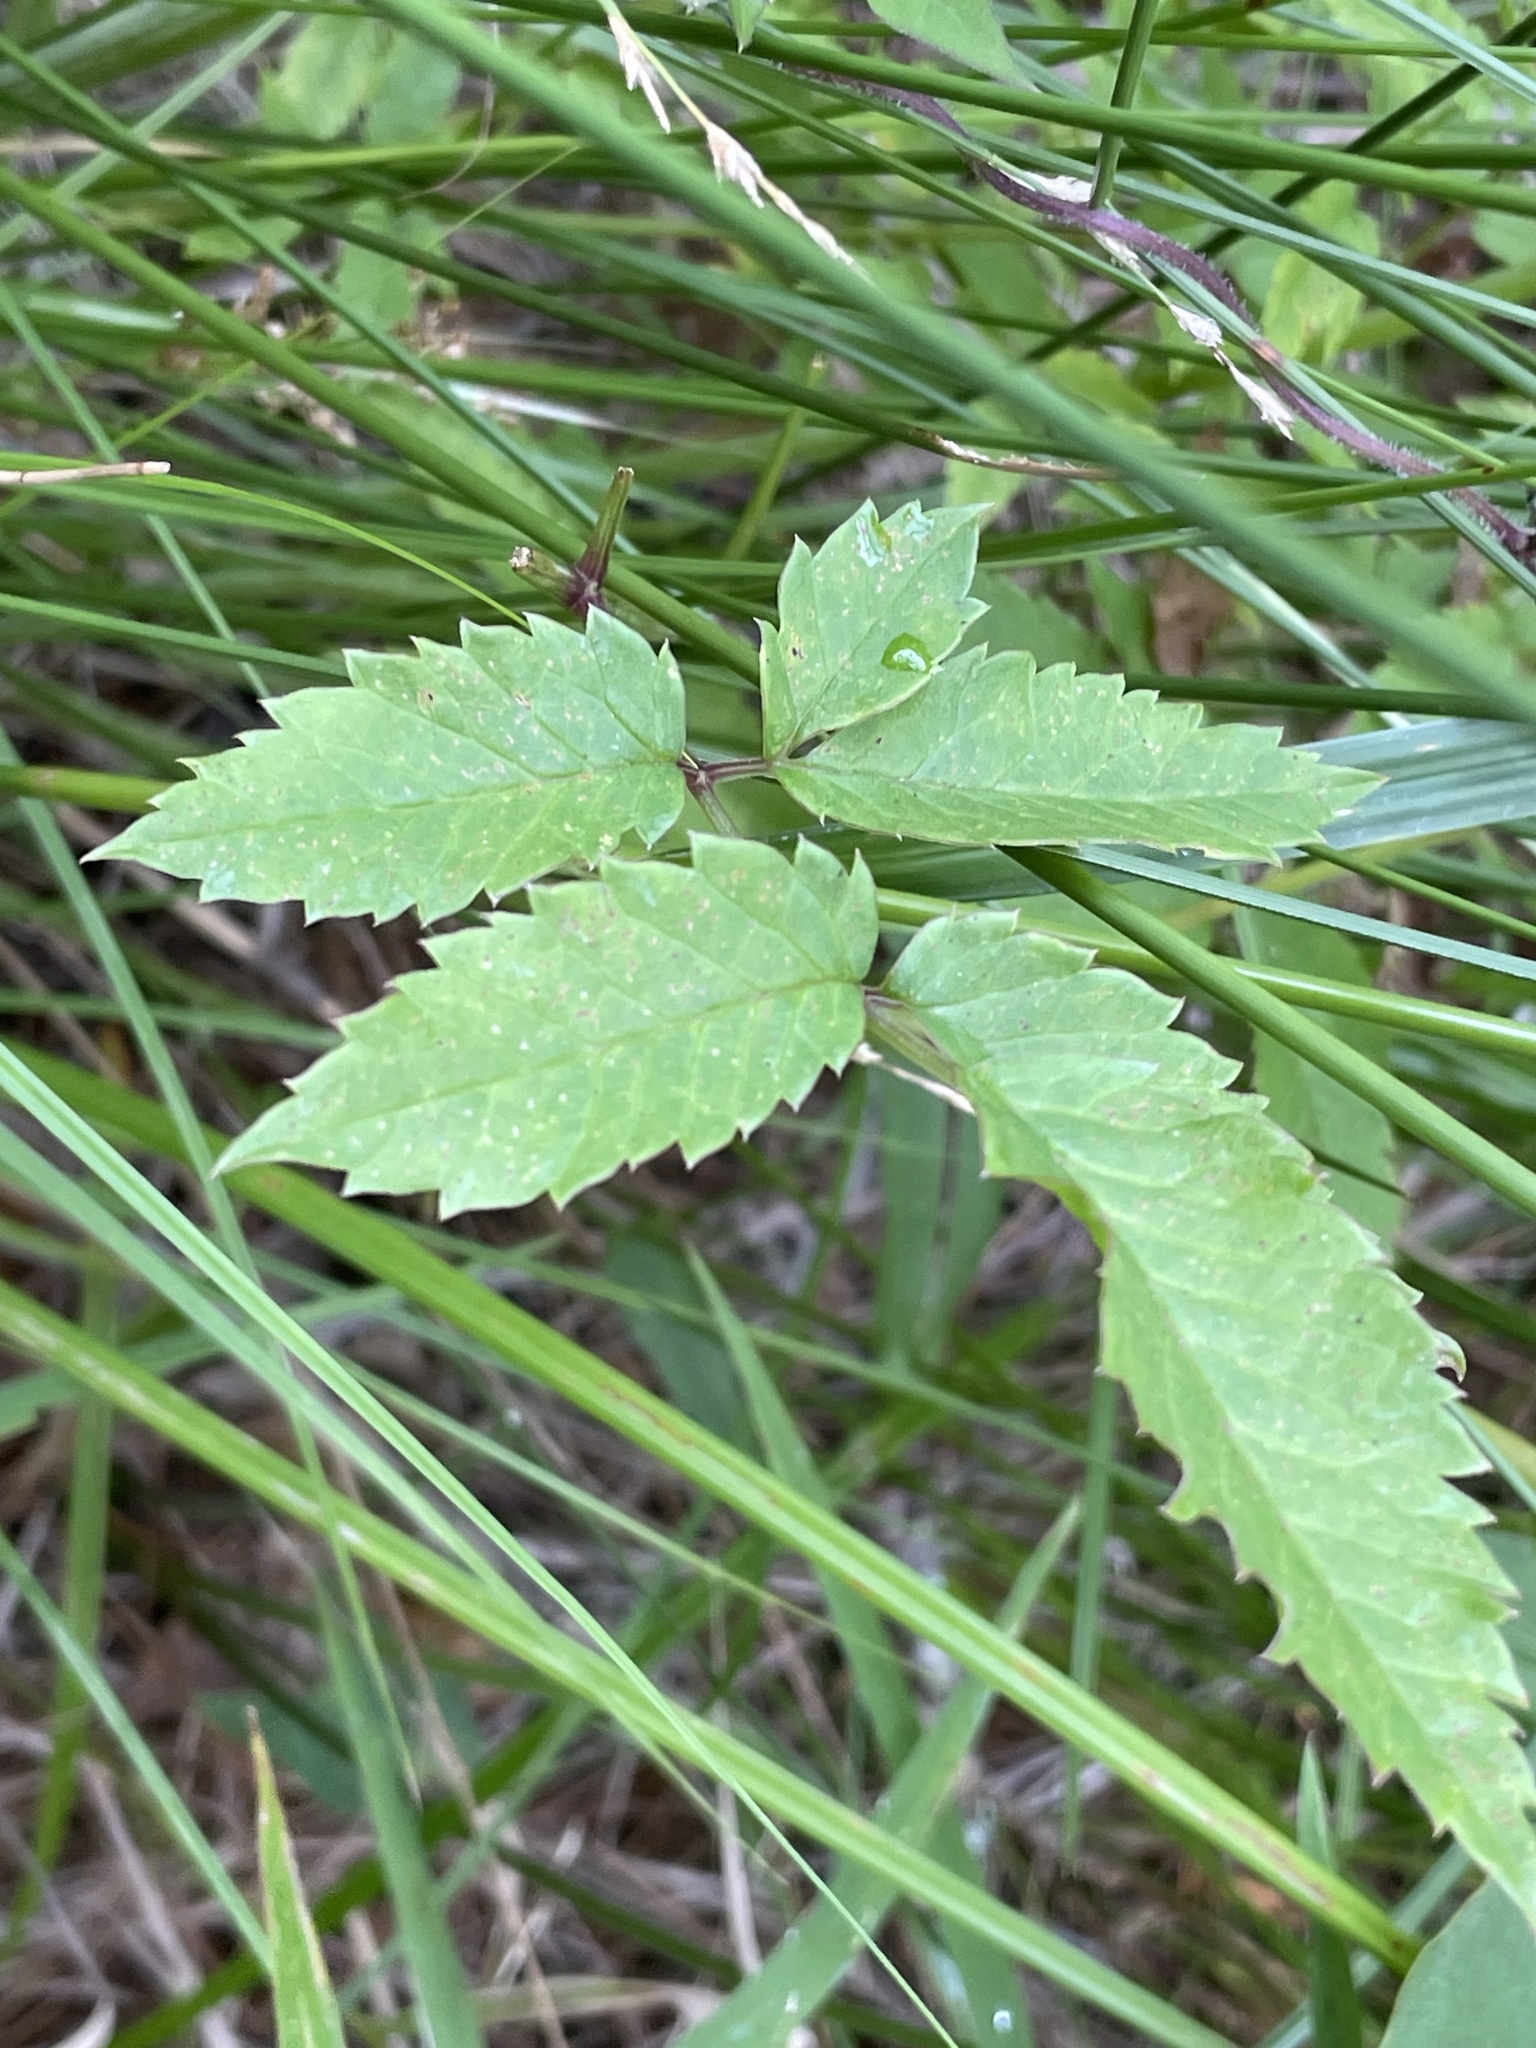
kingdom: Plantae
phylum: Tracheophyta
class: Magnoliopsida
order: Apiales
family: Apiaceae
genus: Cicuta
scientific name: Cicuta maculata
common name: Spotted cowbane
